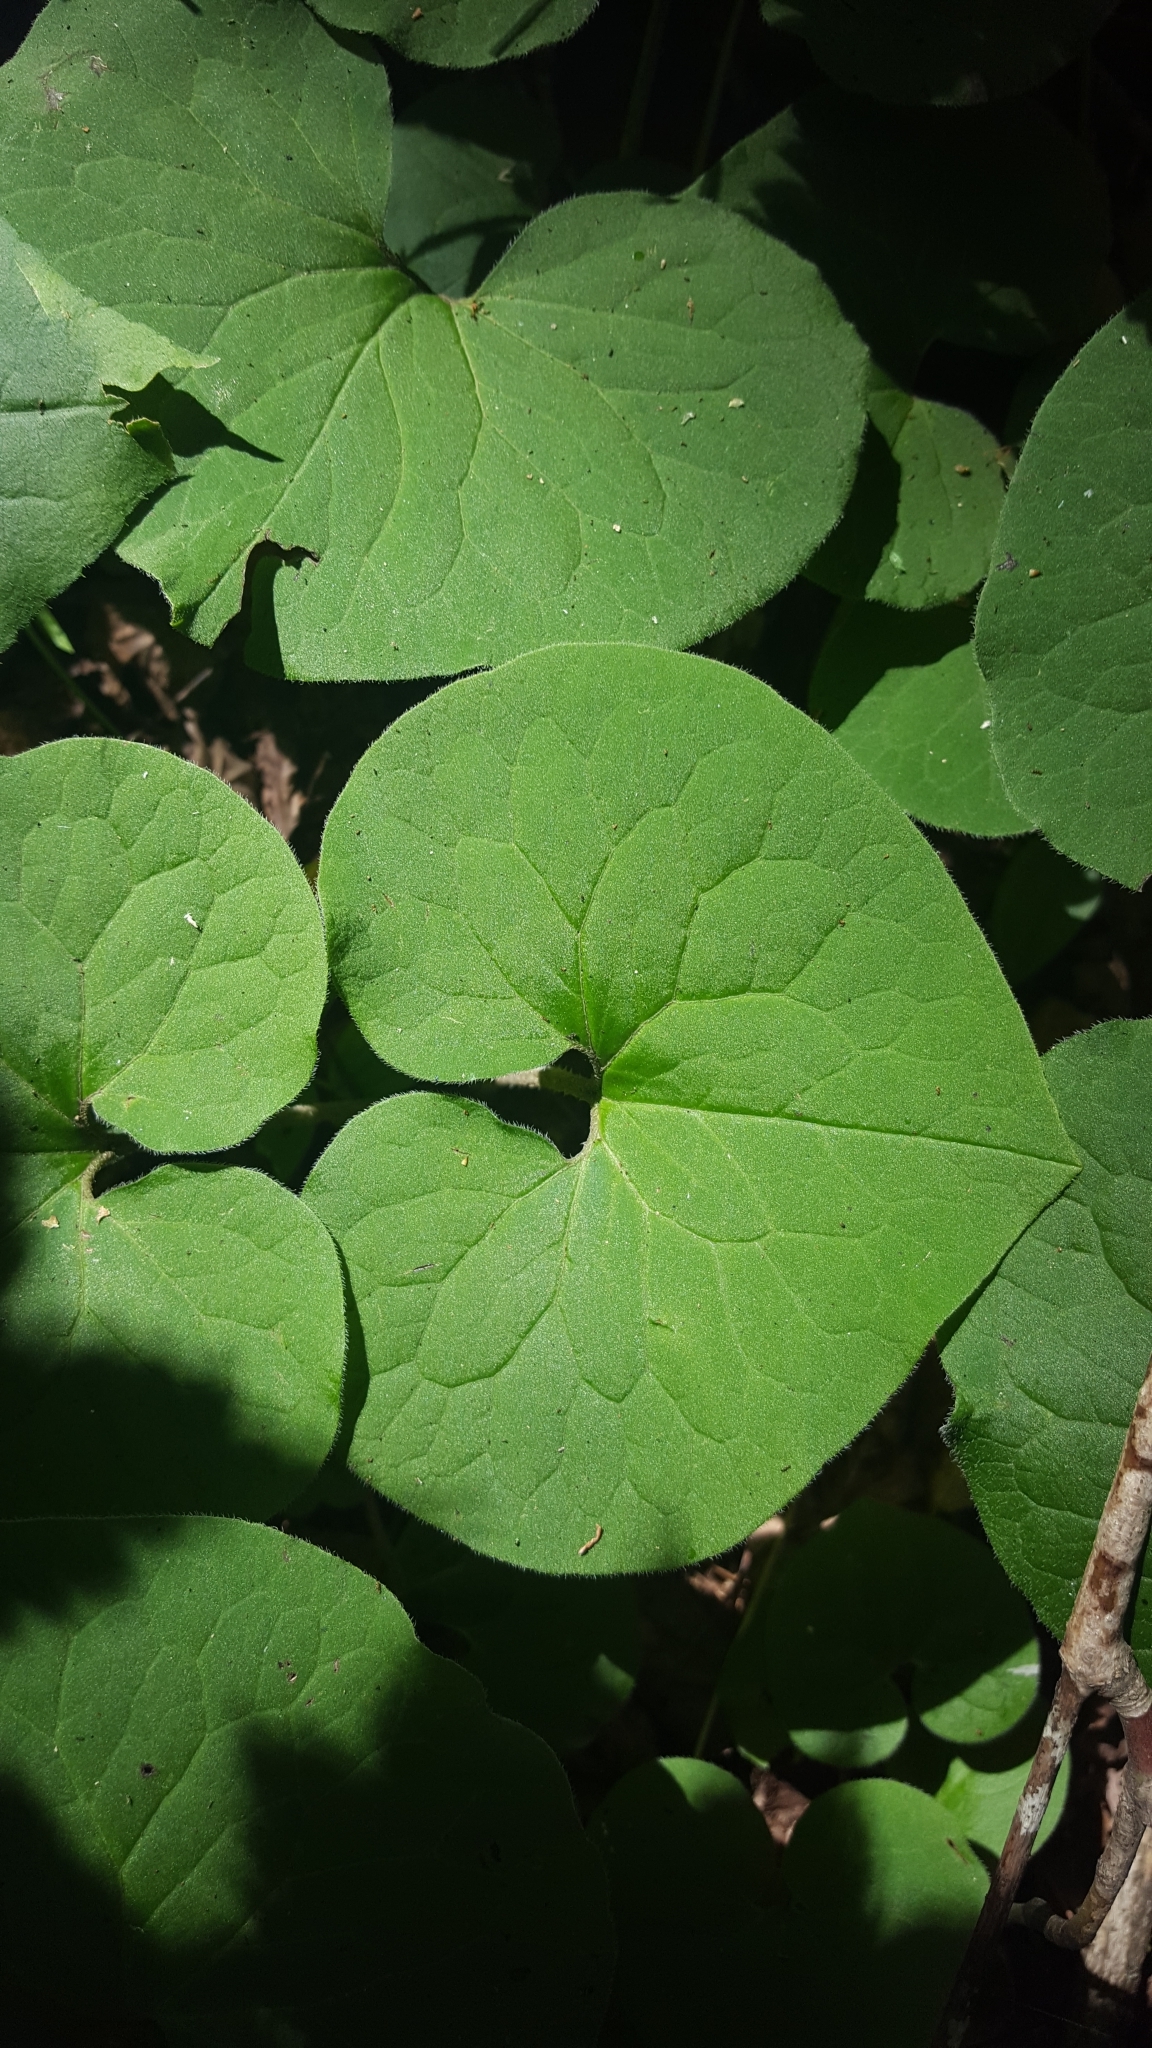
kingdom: Plantae
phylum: Tracheophyta
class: Magnoliopsida
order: Piperales
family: Aristolochiaceae
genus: Asarum
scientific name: Asarum canadense
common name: Wild ginger
